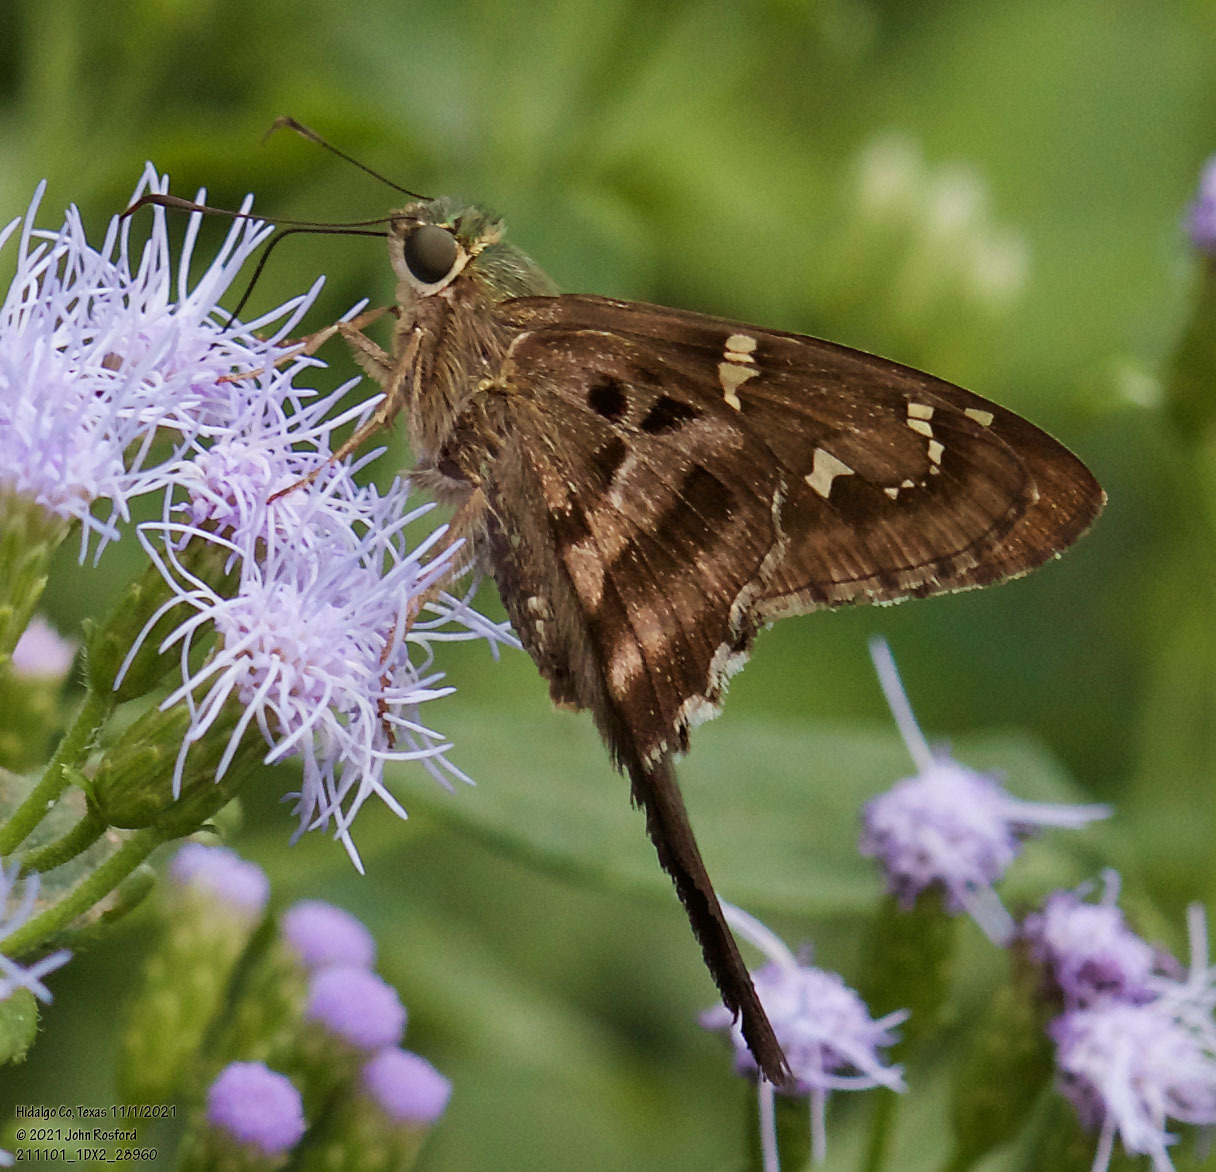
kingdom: Animalia
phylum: Arthropoda
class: Insecta
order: Lepidoptera
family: Hesperiidae
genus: Urbanus
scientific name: Urbanus proteus
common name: Long-tailed skipper
